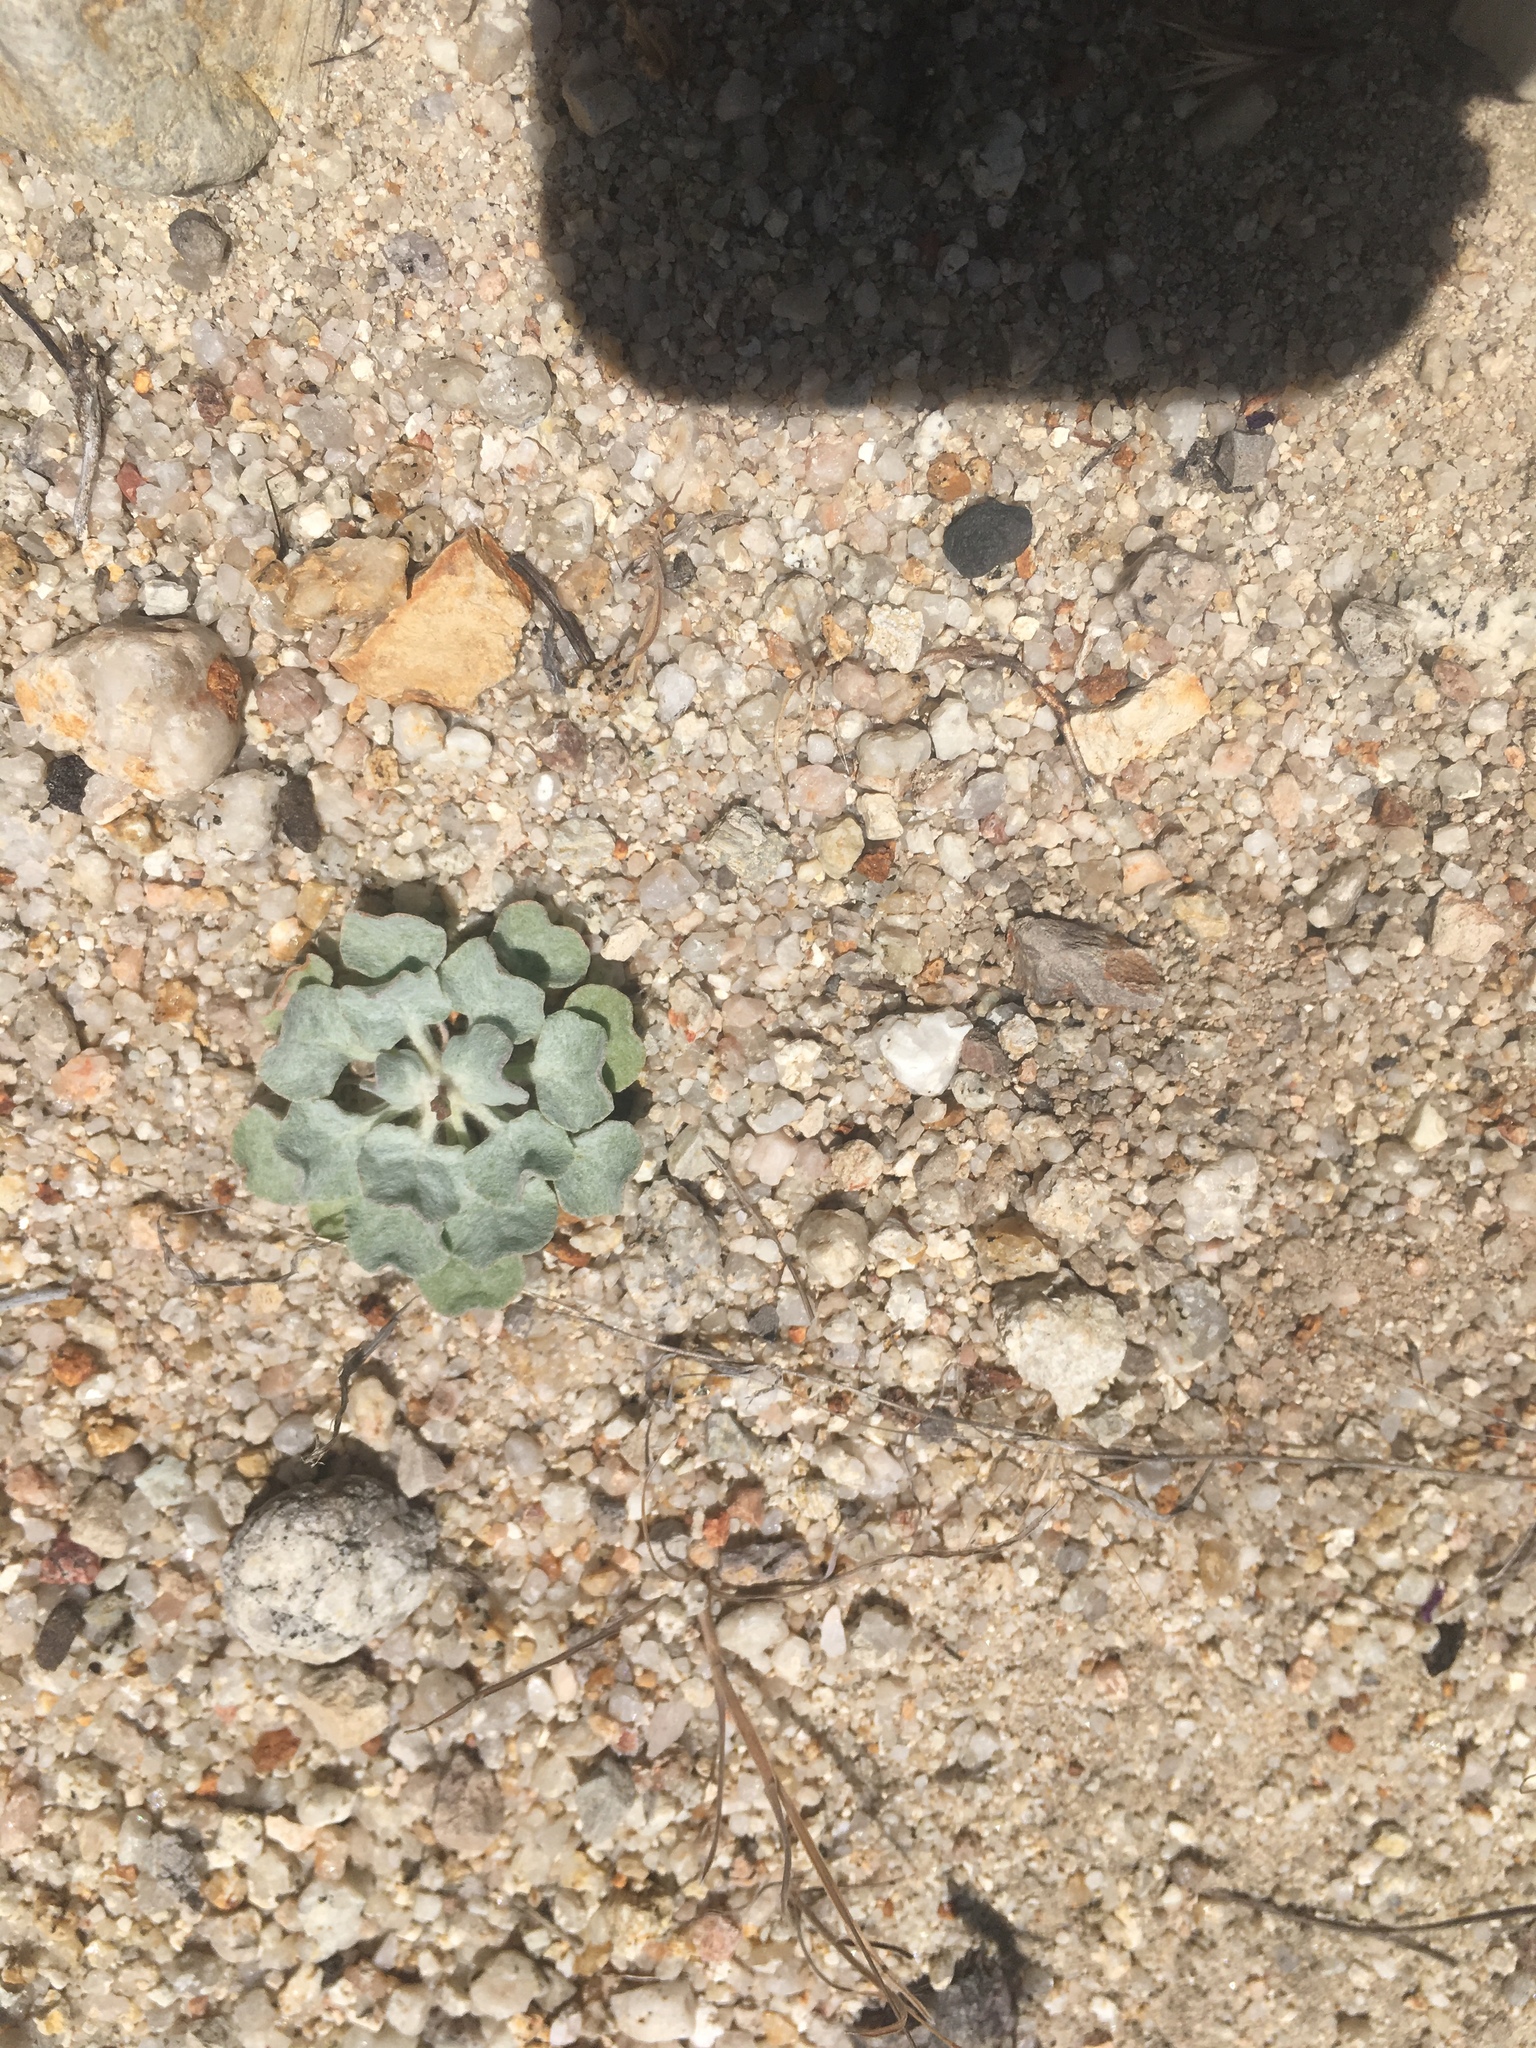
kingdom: Plantae
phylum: Tracheophyta
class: Magnoliopsida
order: Caryophyllales
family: Polygonaceae
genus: Eriogonum
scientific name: Eriogonum elegans
